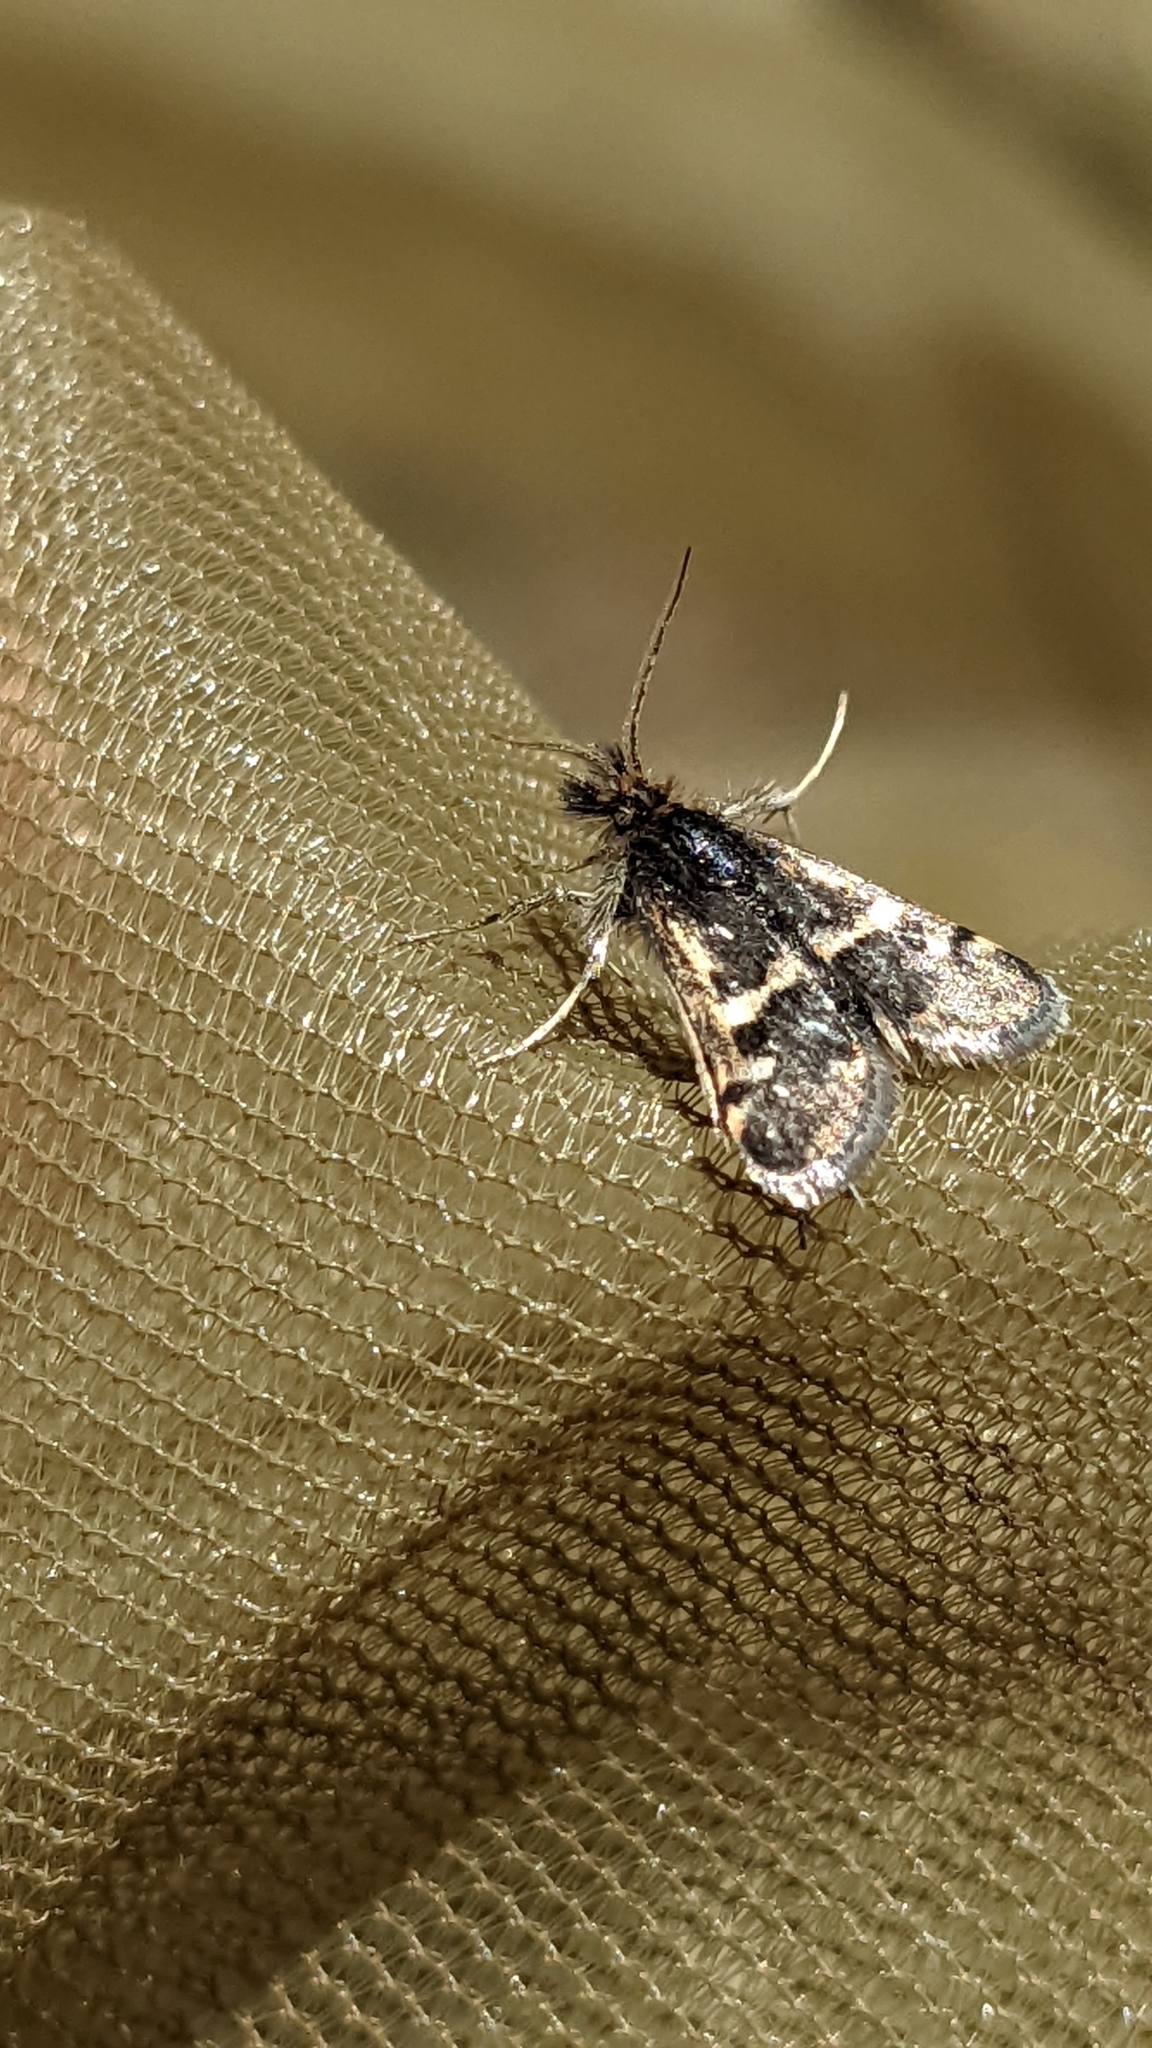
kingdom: Animalia
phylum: Arthropoda
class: Insecta
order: Lepidoptera
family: Crambidae
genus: Titanio
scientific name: Titanio tarraconensis
